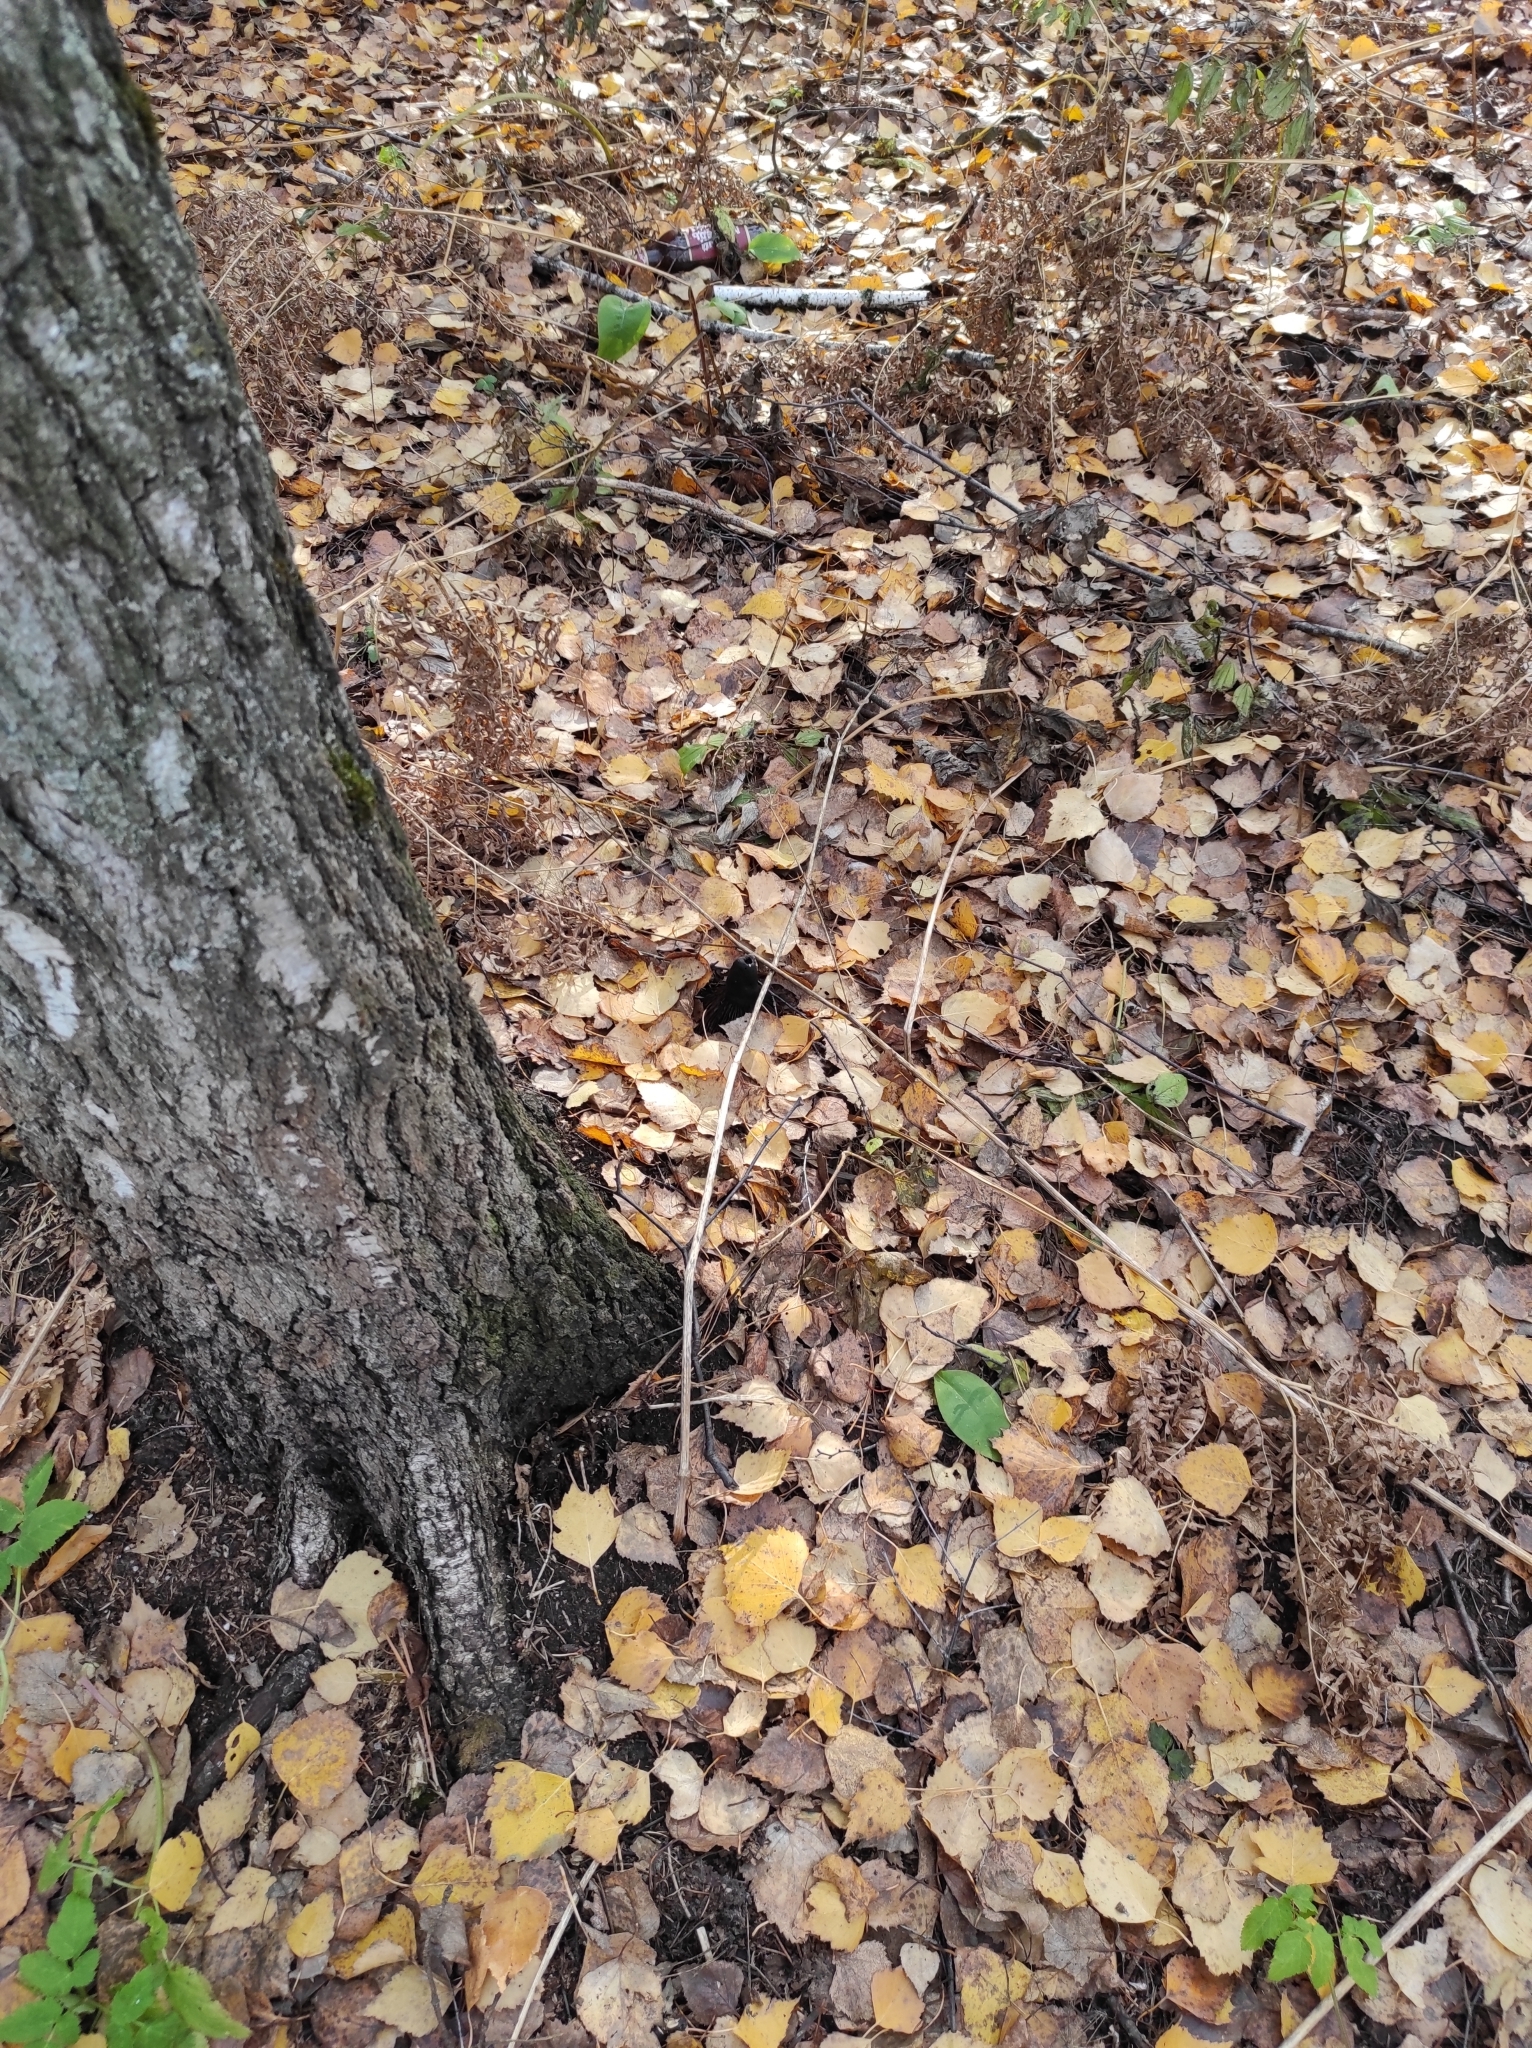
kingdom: Plantae
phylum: Tracheophyta
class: Magnoliopsida
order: Fagales
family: Betulaceae
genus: Betula
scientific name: Betula pendula
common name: Silver birch
